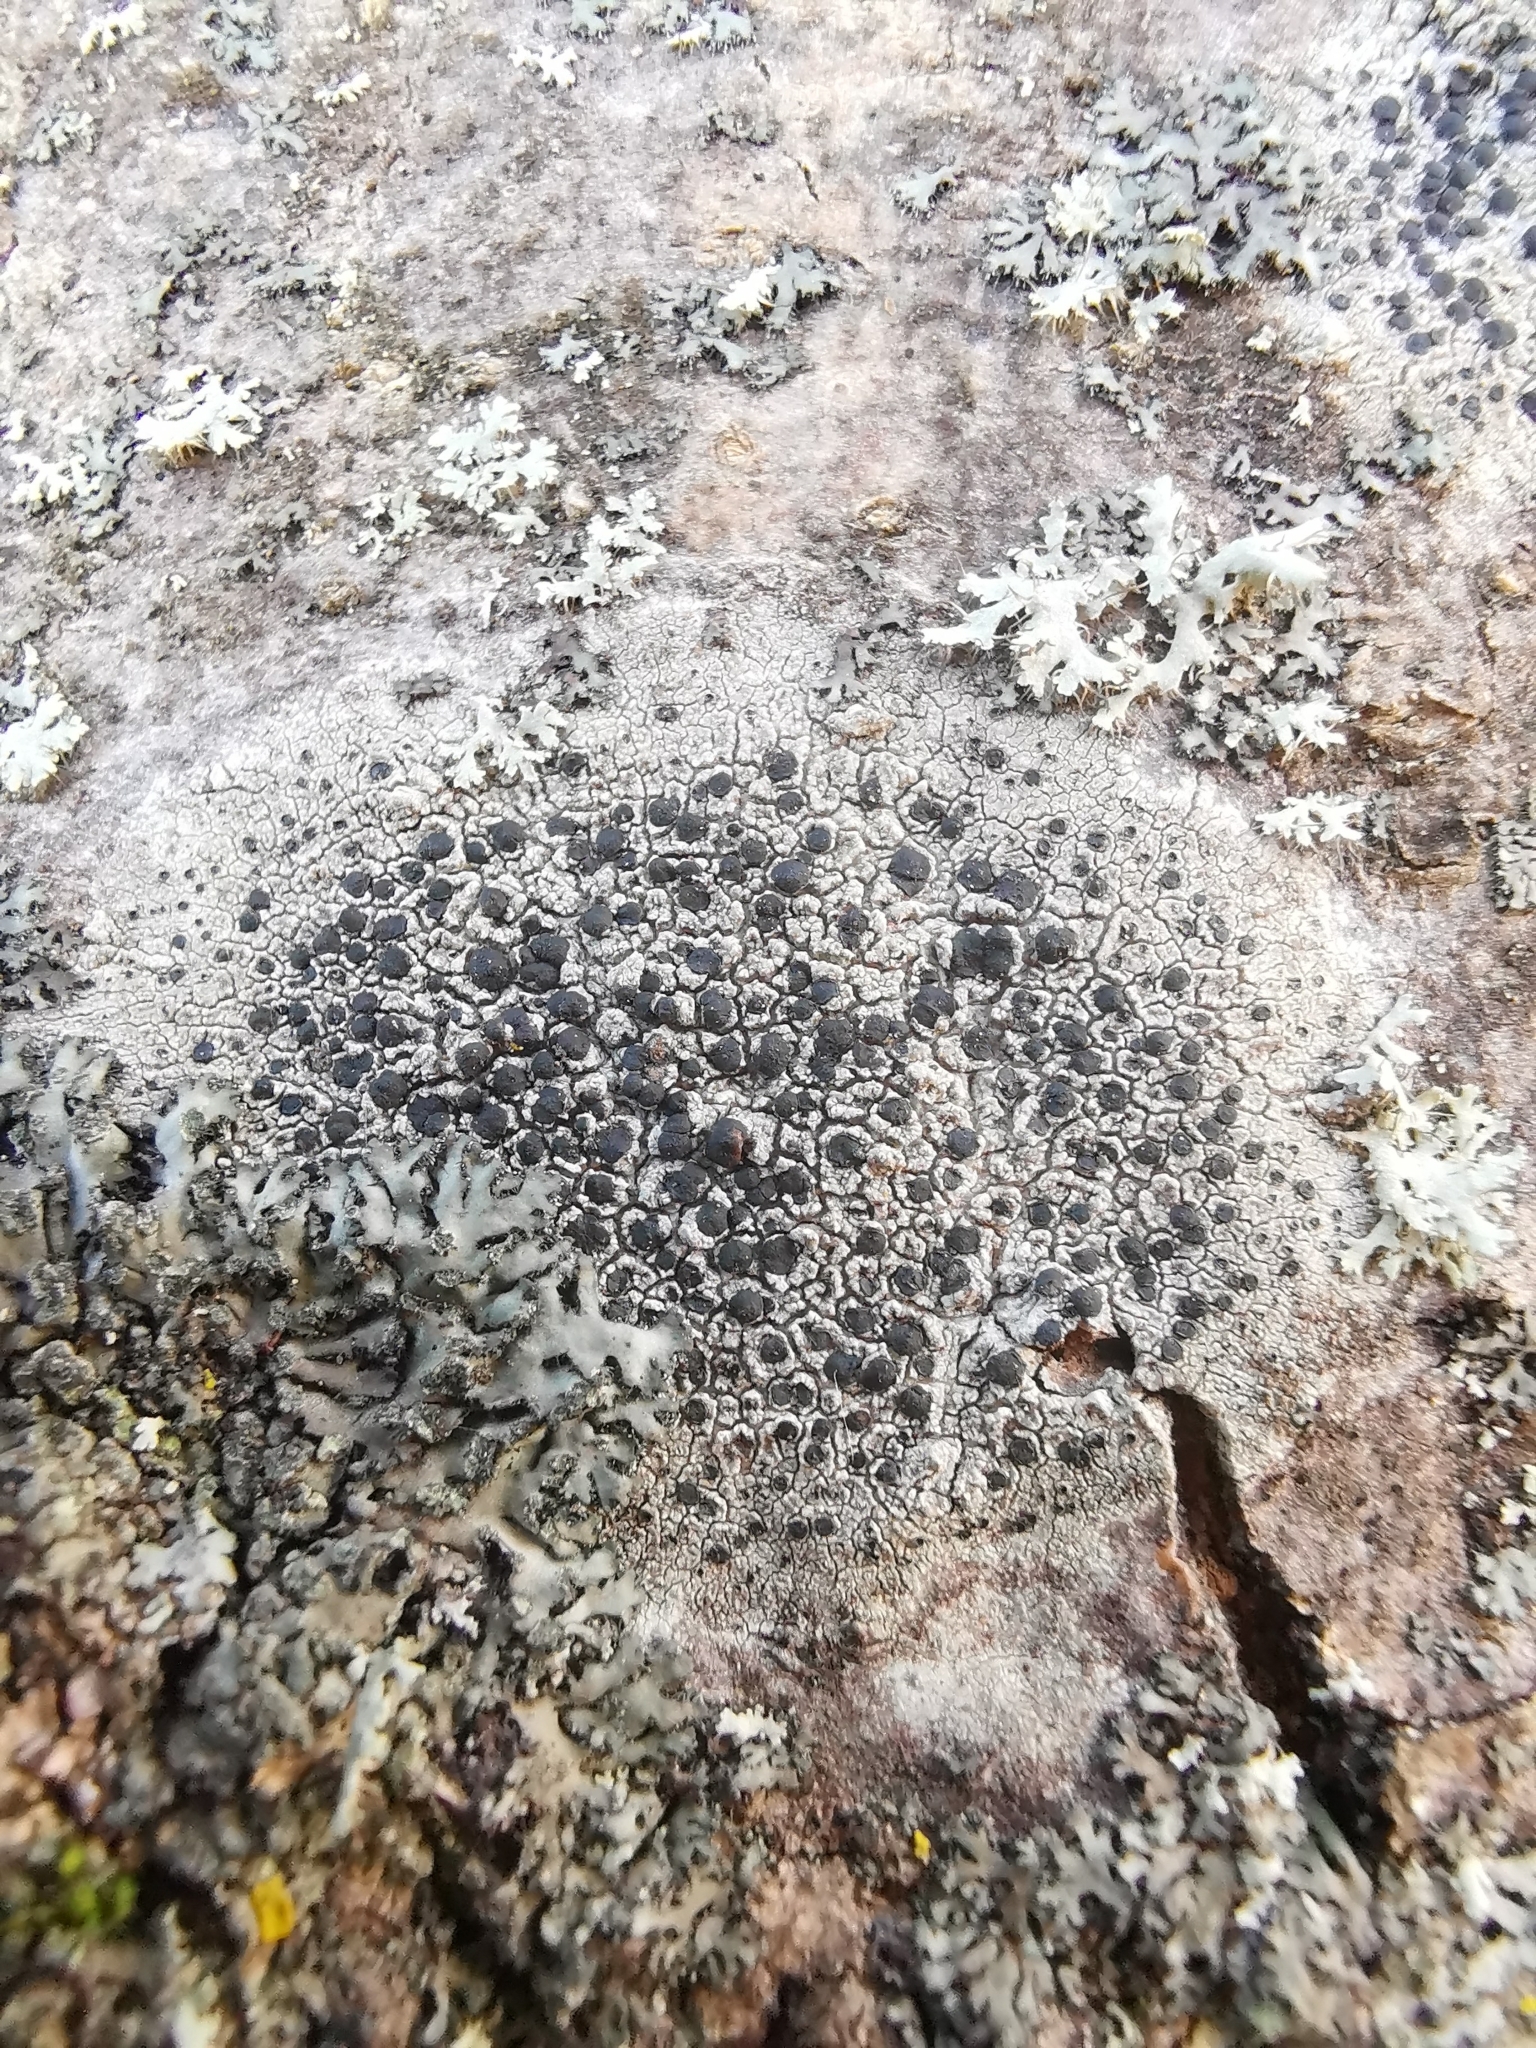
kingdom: Fungi
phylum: Ascomycota
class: Lecanoromycetes
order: Lecanorales
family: Lecanoraceae
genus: Lecidella
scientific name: Lecidella elaeochroma
